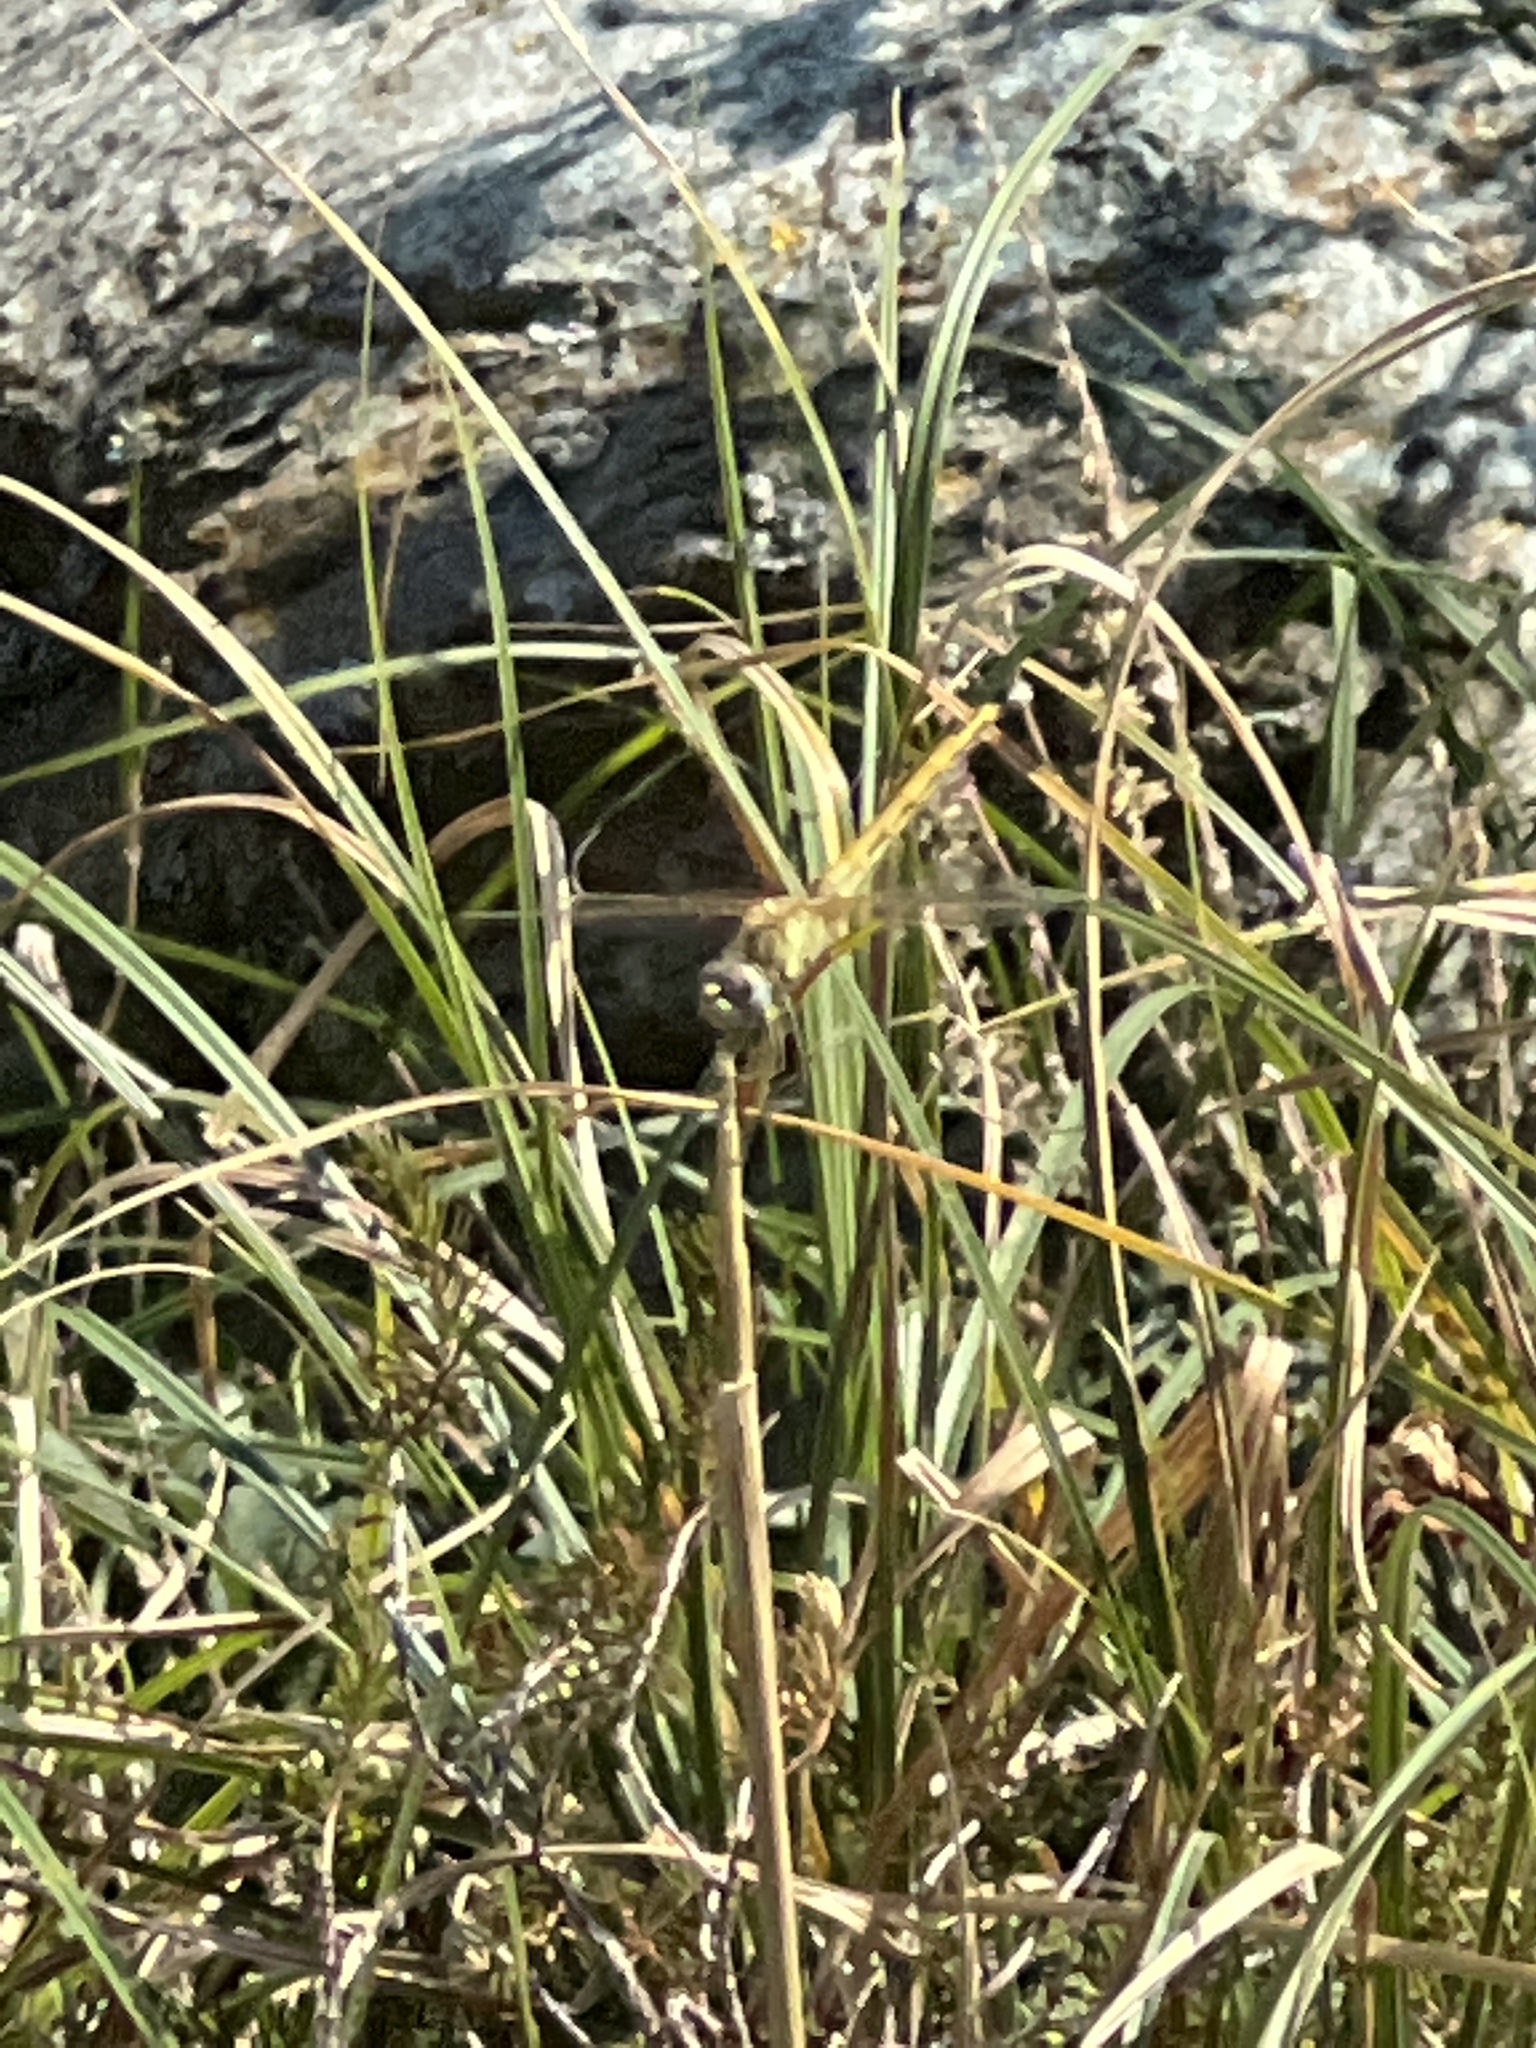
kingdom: Animalia
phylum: Arthropoda
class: Insecta
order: Odonata
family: Libellulidae
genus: Sympetrum
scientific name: Sympetrum fonscolombii
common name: Red-veined darter
